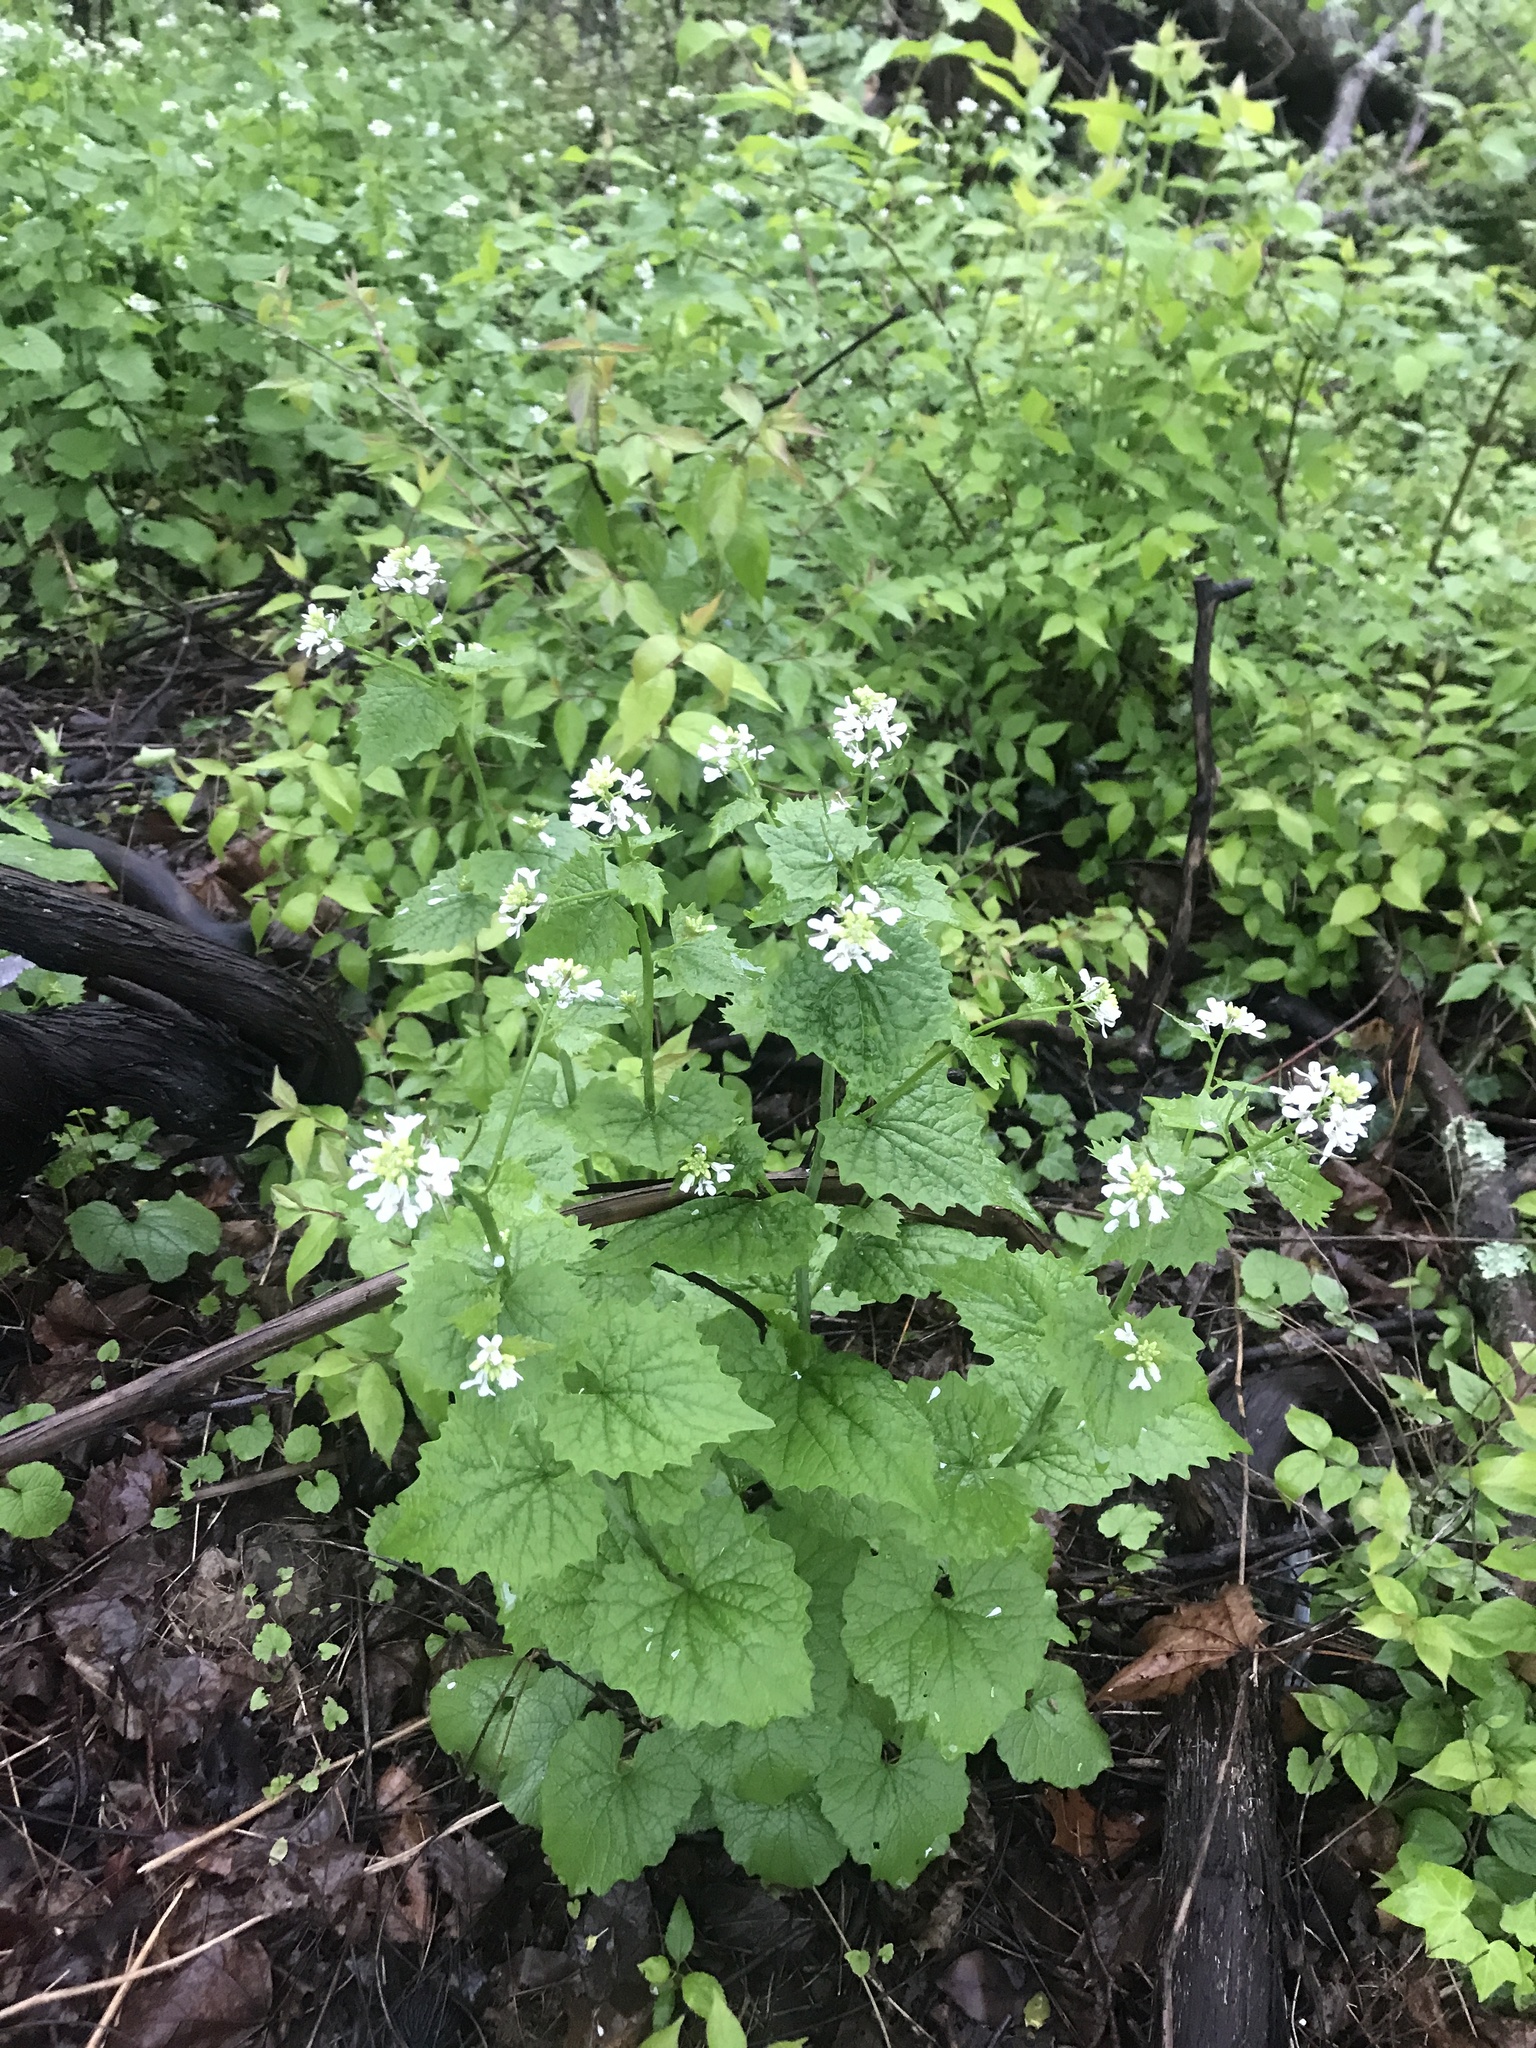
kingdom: Plantae
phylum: Tracheophyta
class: Magnoliopsida
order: Brassicales
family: Brassicaceae
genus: Alliaria
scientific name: Alliaria petiolata
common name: Garlic mustard
